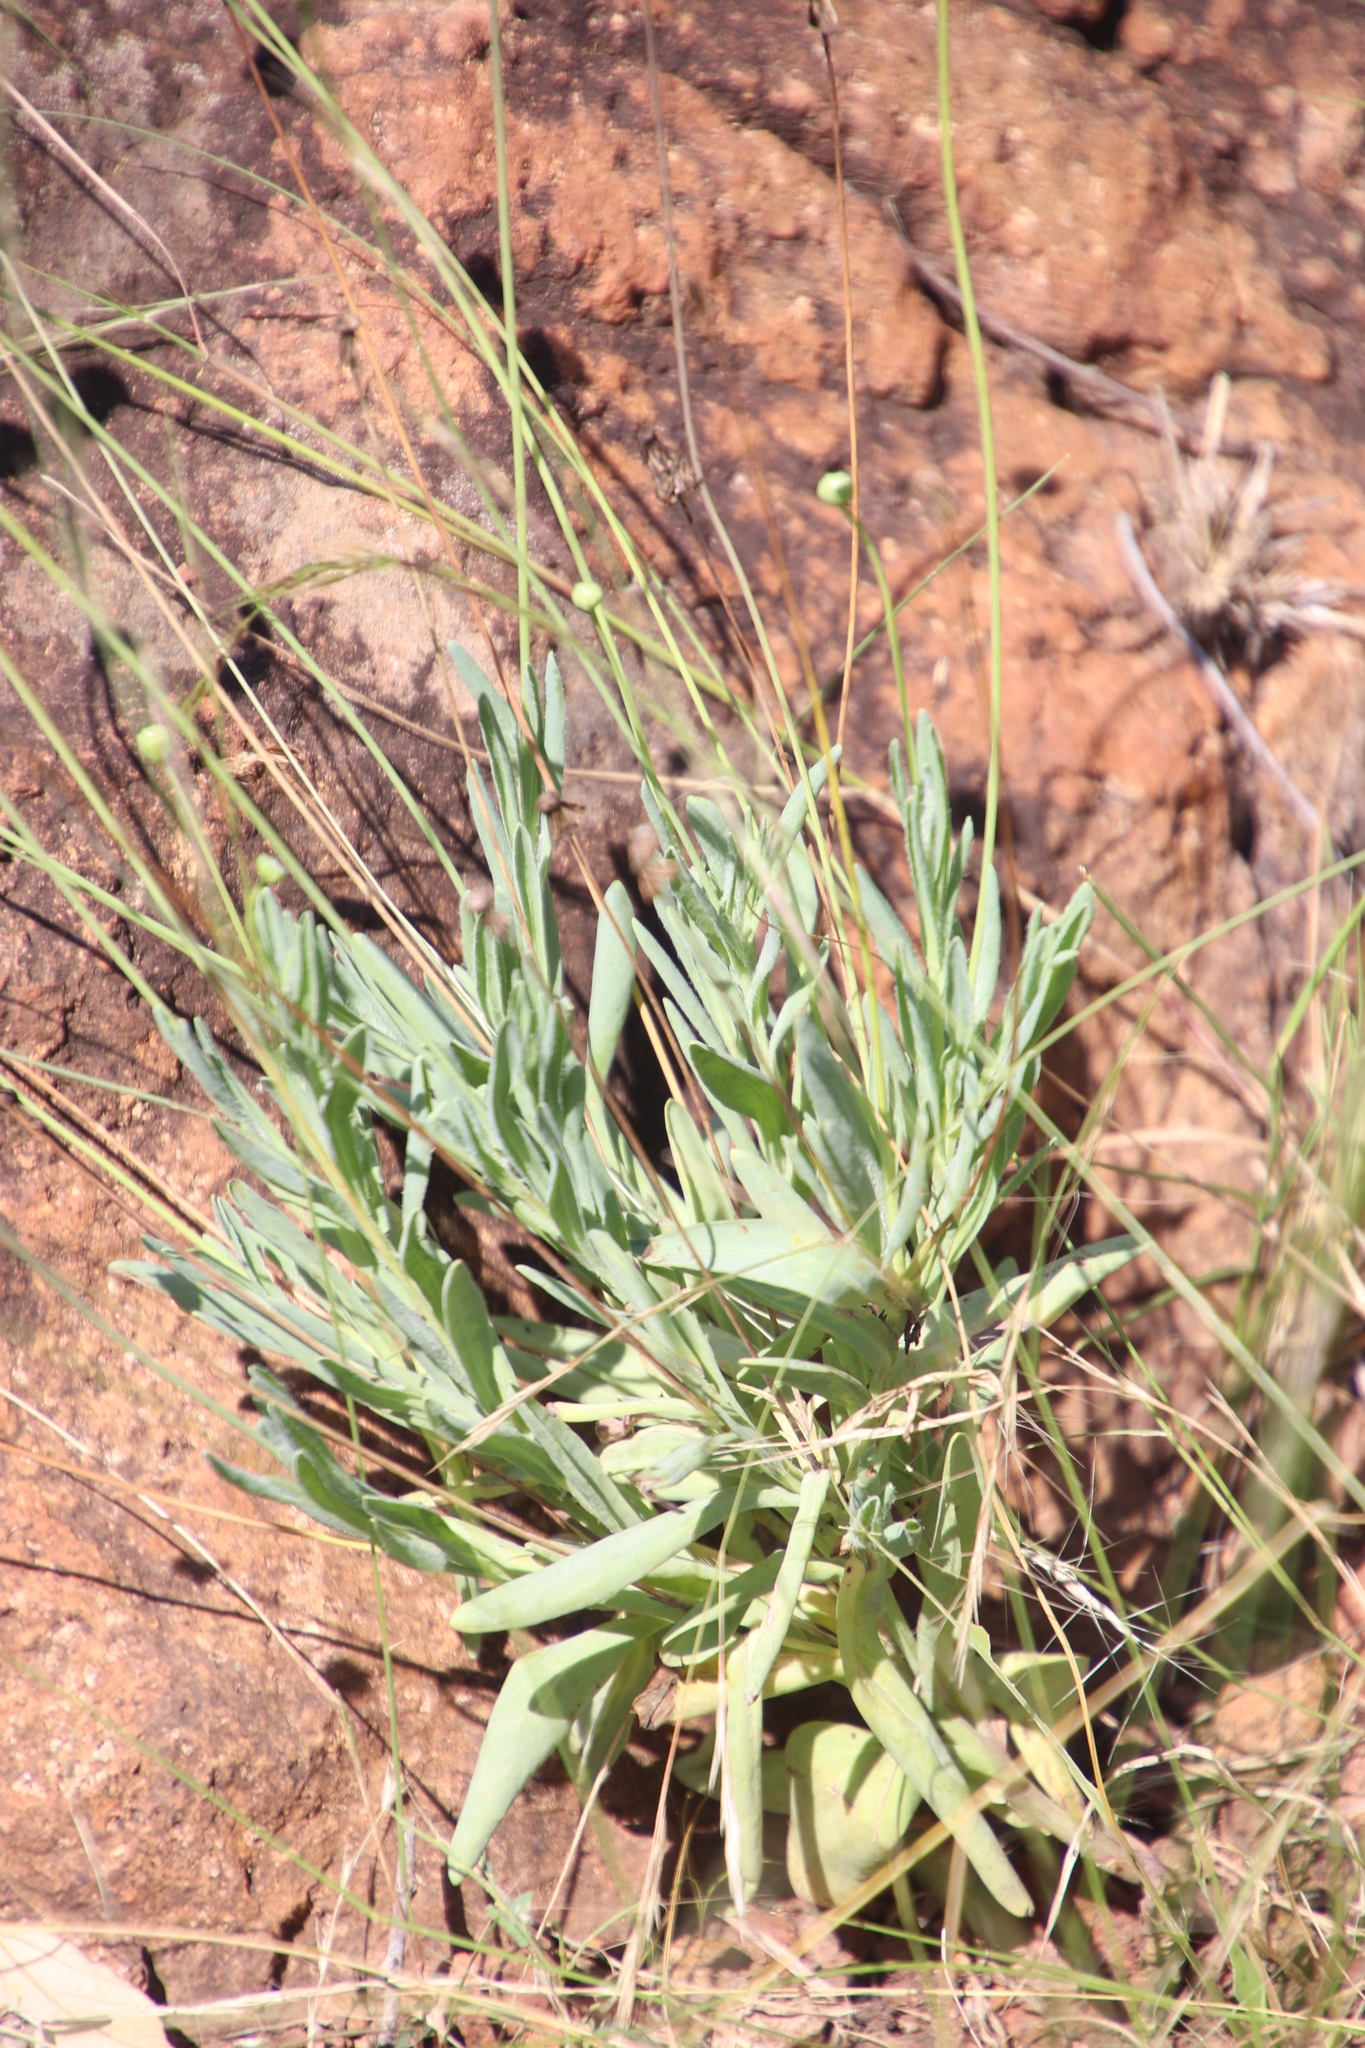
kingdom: Plantae
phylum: Tracheophyta
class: Magnoliopsida
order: Asterales
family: Asteraceae
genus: Emilia
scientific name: Emilia transvaalensis
